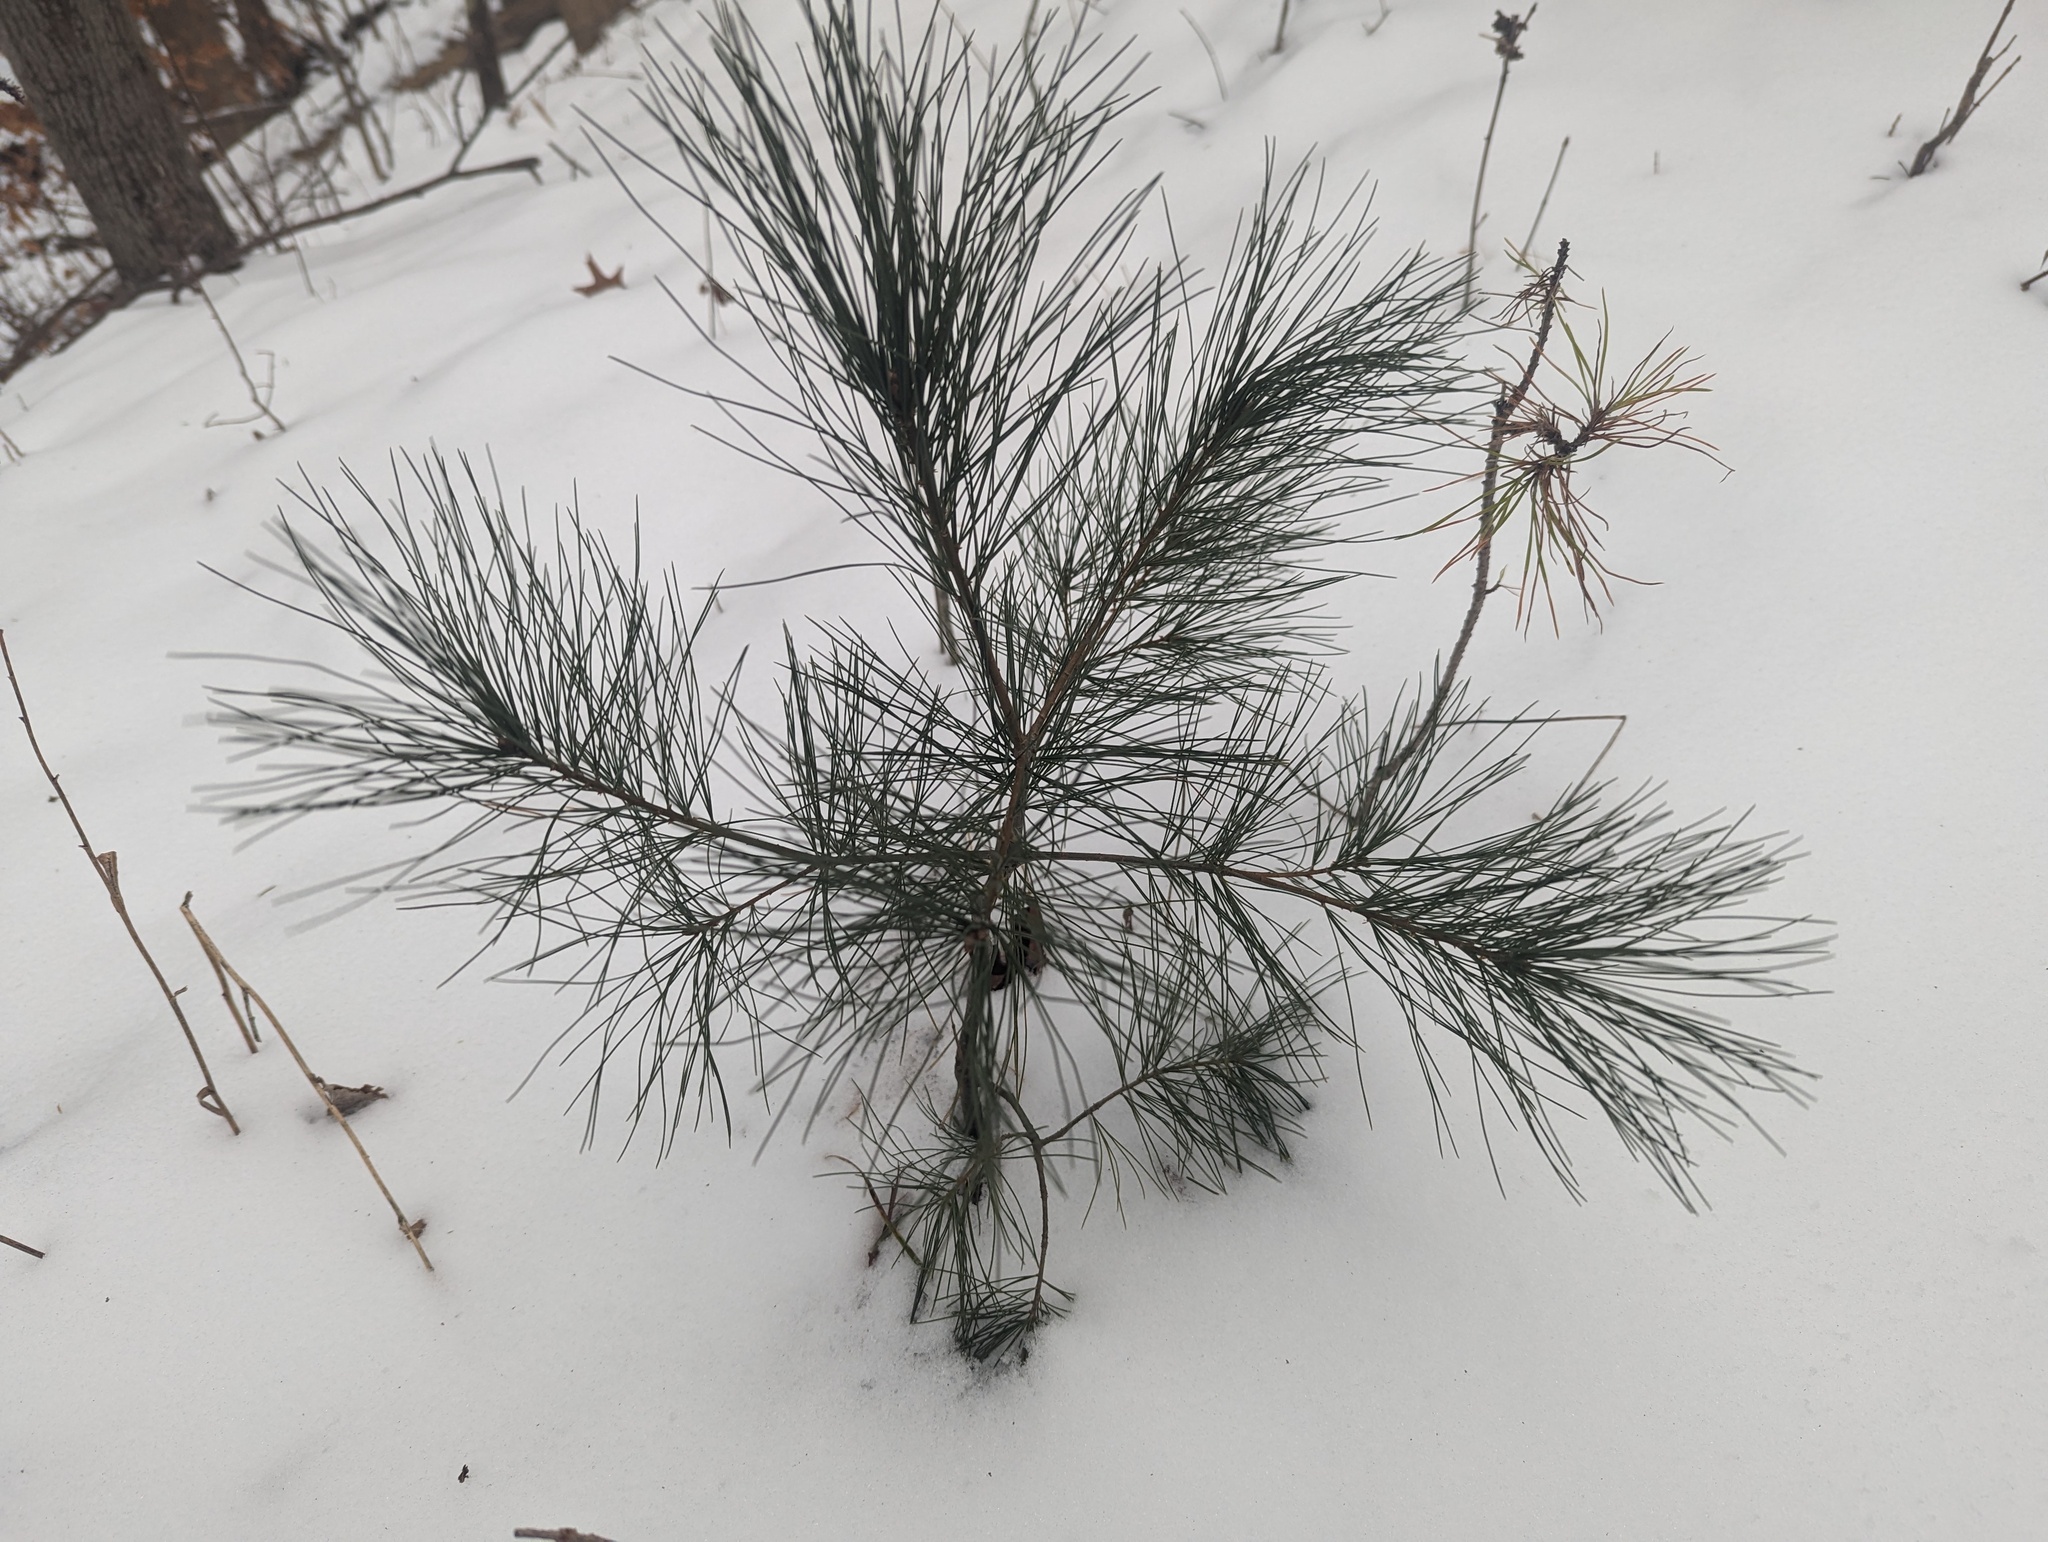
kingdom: Plantae
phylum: Tracheophyta
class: Pinopsida
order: Pinales
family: Pinaceae
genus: Pinus
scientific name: Pinus strobus
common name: Weymouth pine
